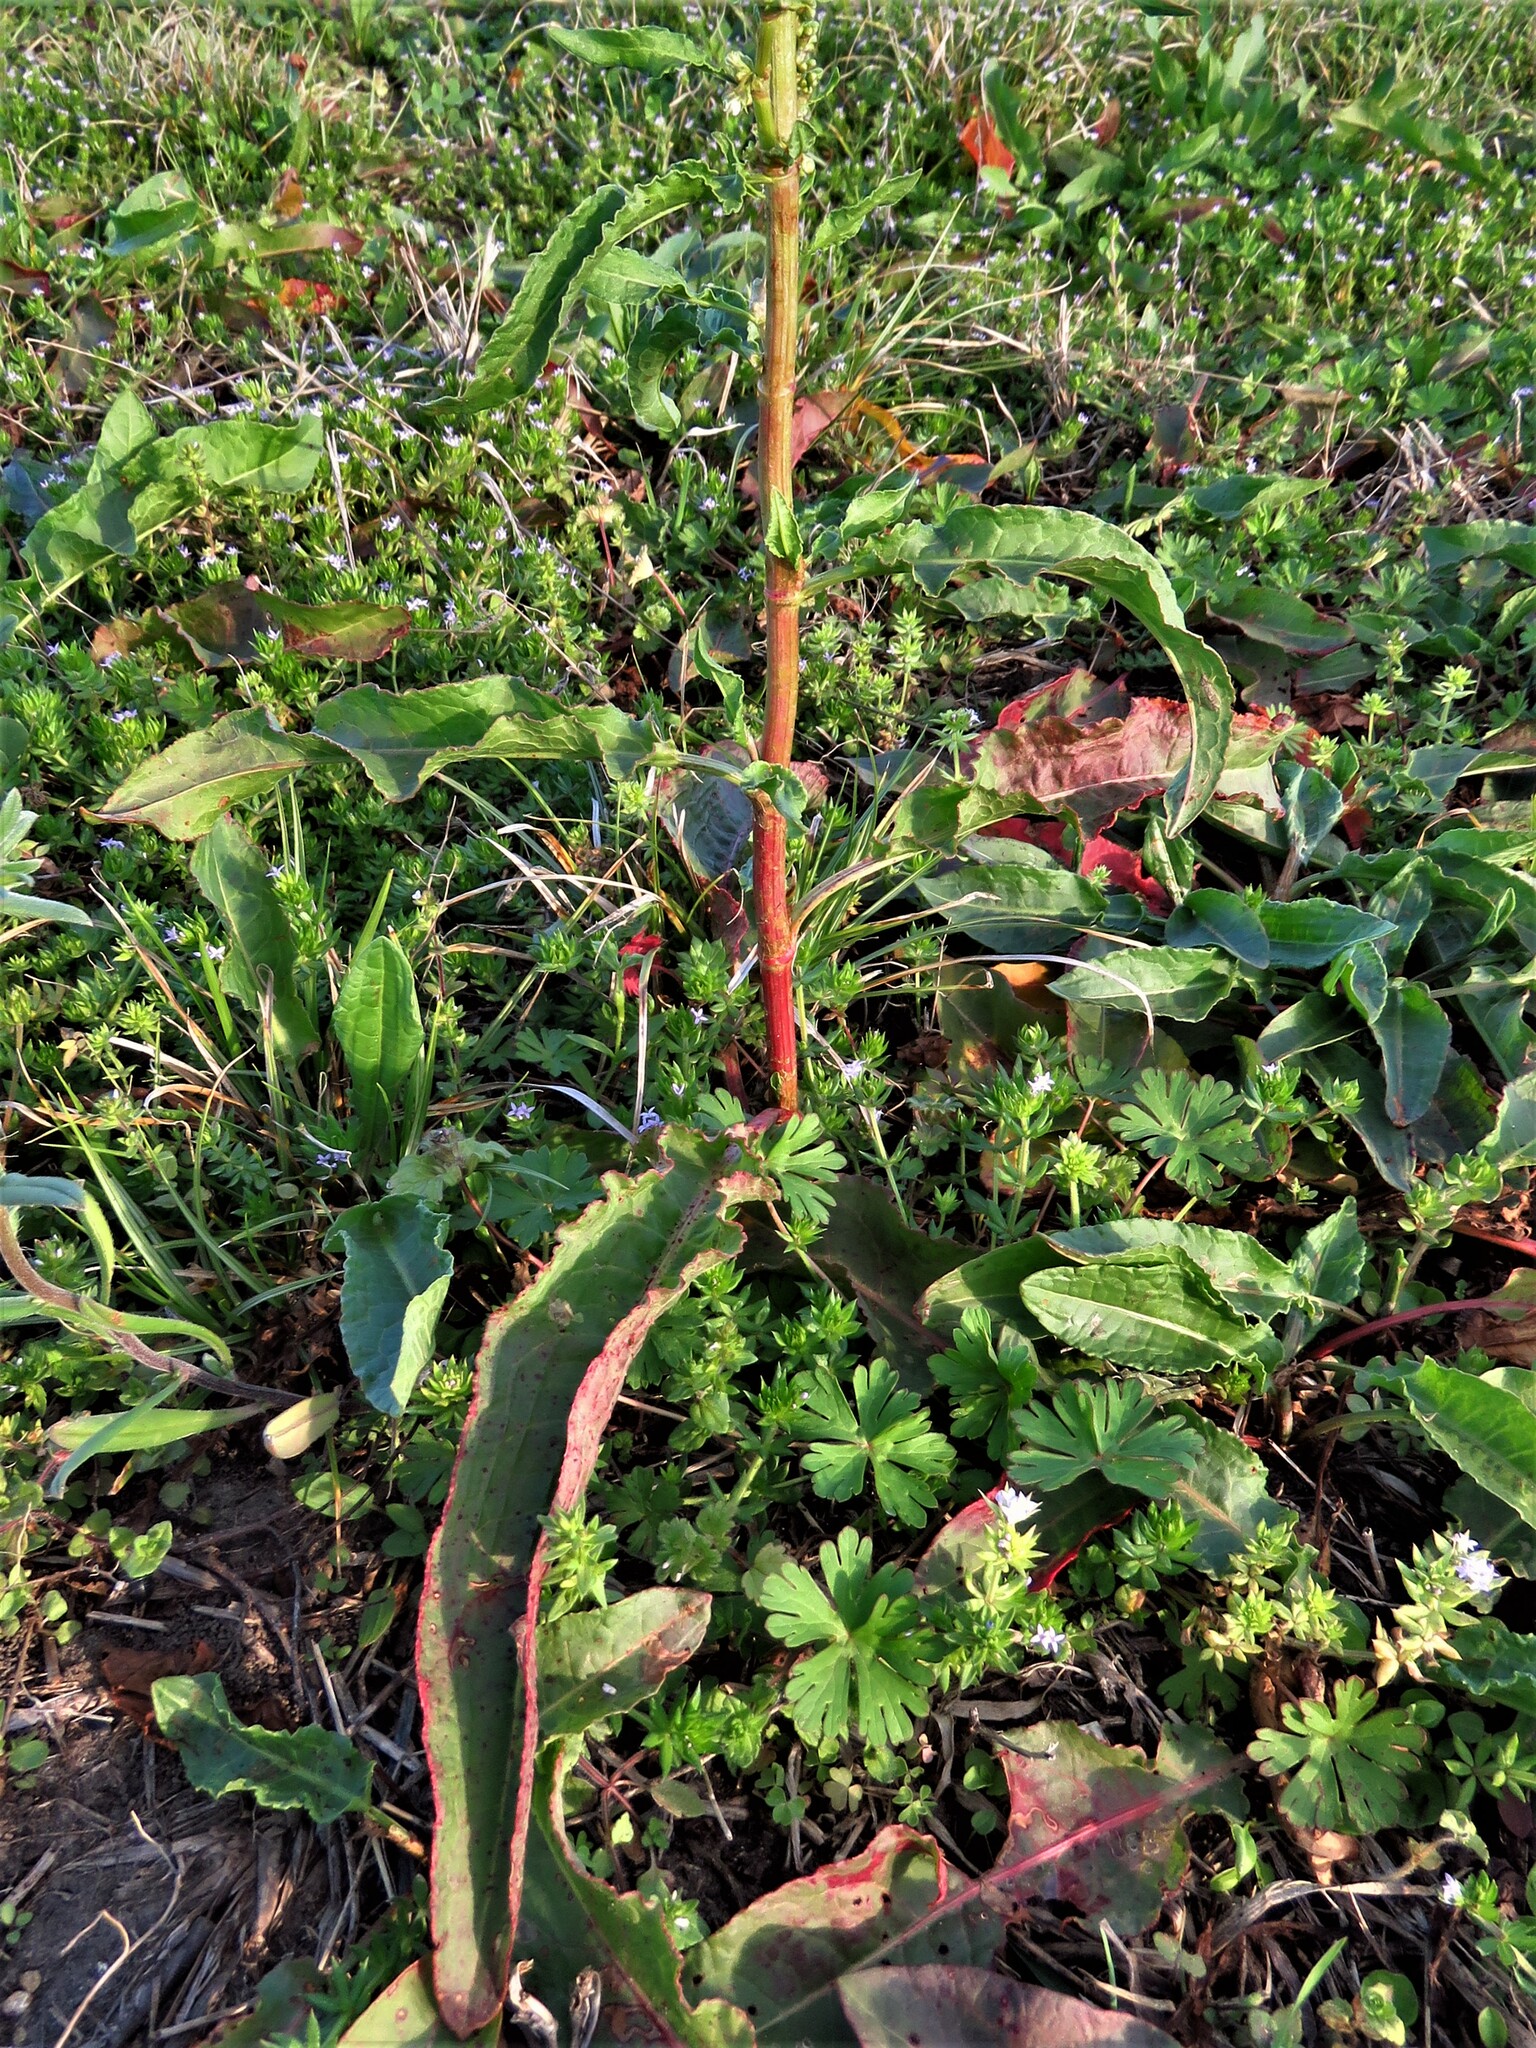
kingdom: Plantae
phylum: Tracheophyta
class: Magnoliopsida
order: Caryophyllales
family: Polygonaceae
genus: Rumex
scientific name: Rumex crispus
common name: Curled dock
